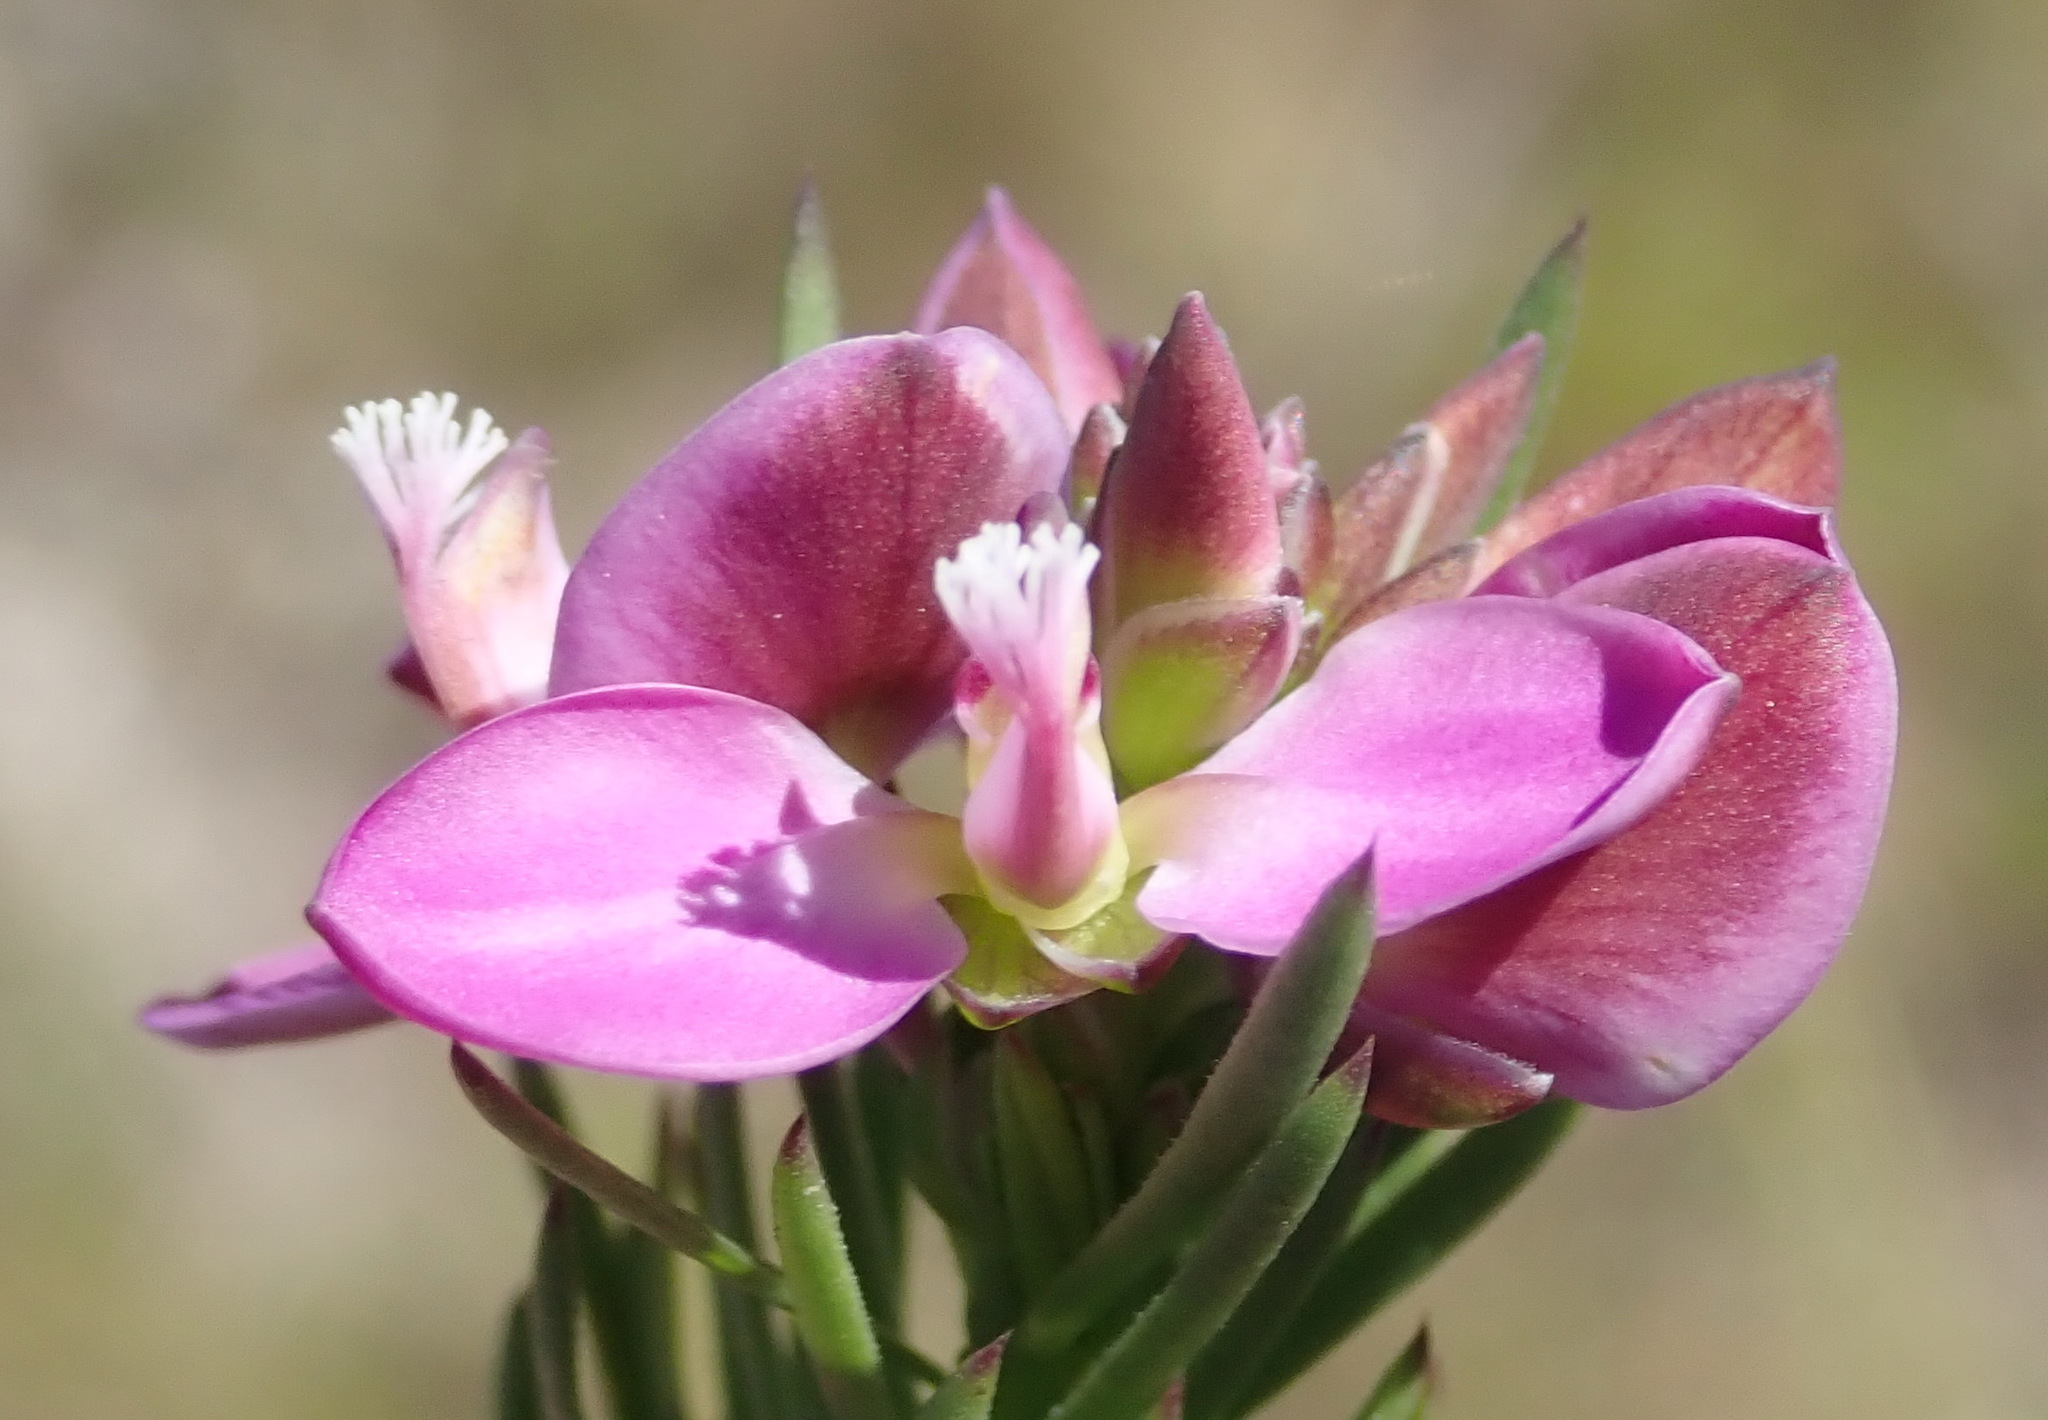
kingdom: Plantae
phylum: Tracheophyta
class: Magnoliopsida
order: Fabales
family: Polygalaceae
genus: Polygala
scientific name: Polygala ericifolia
